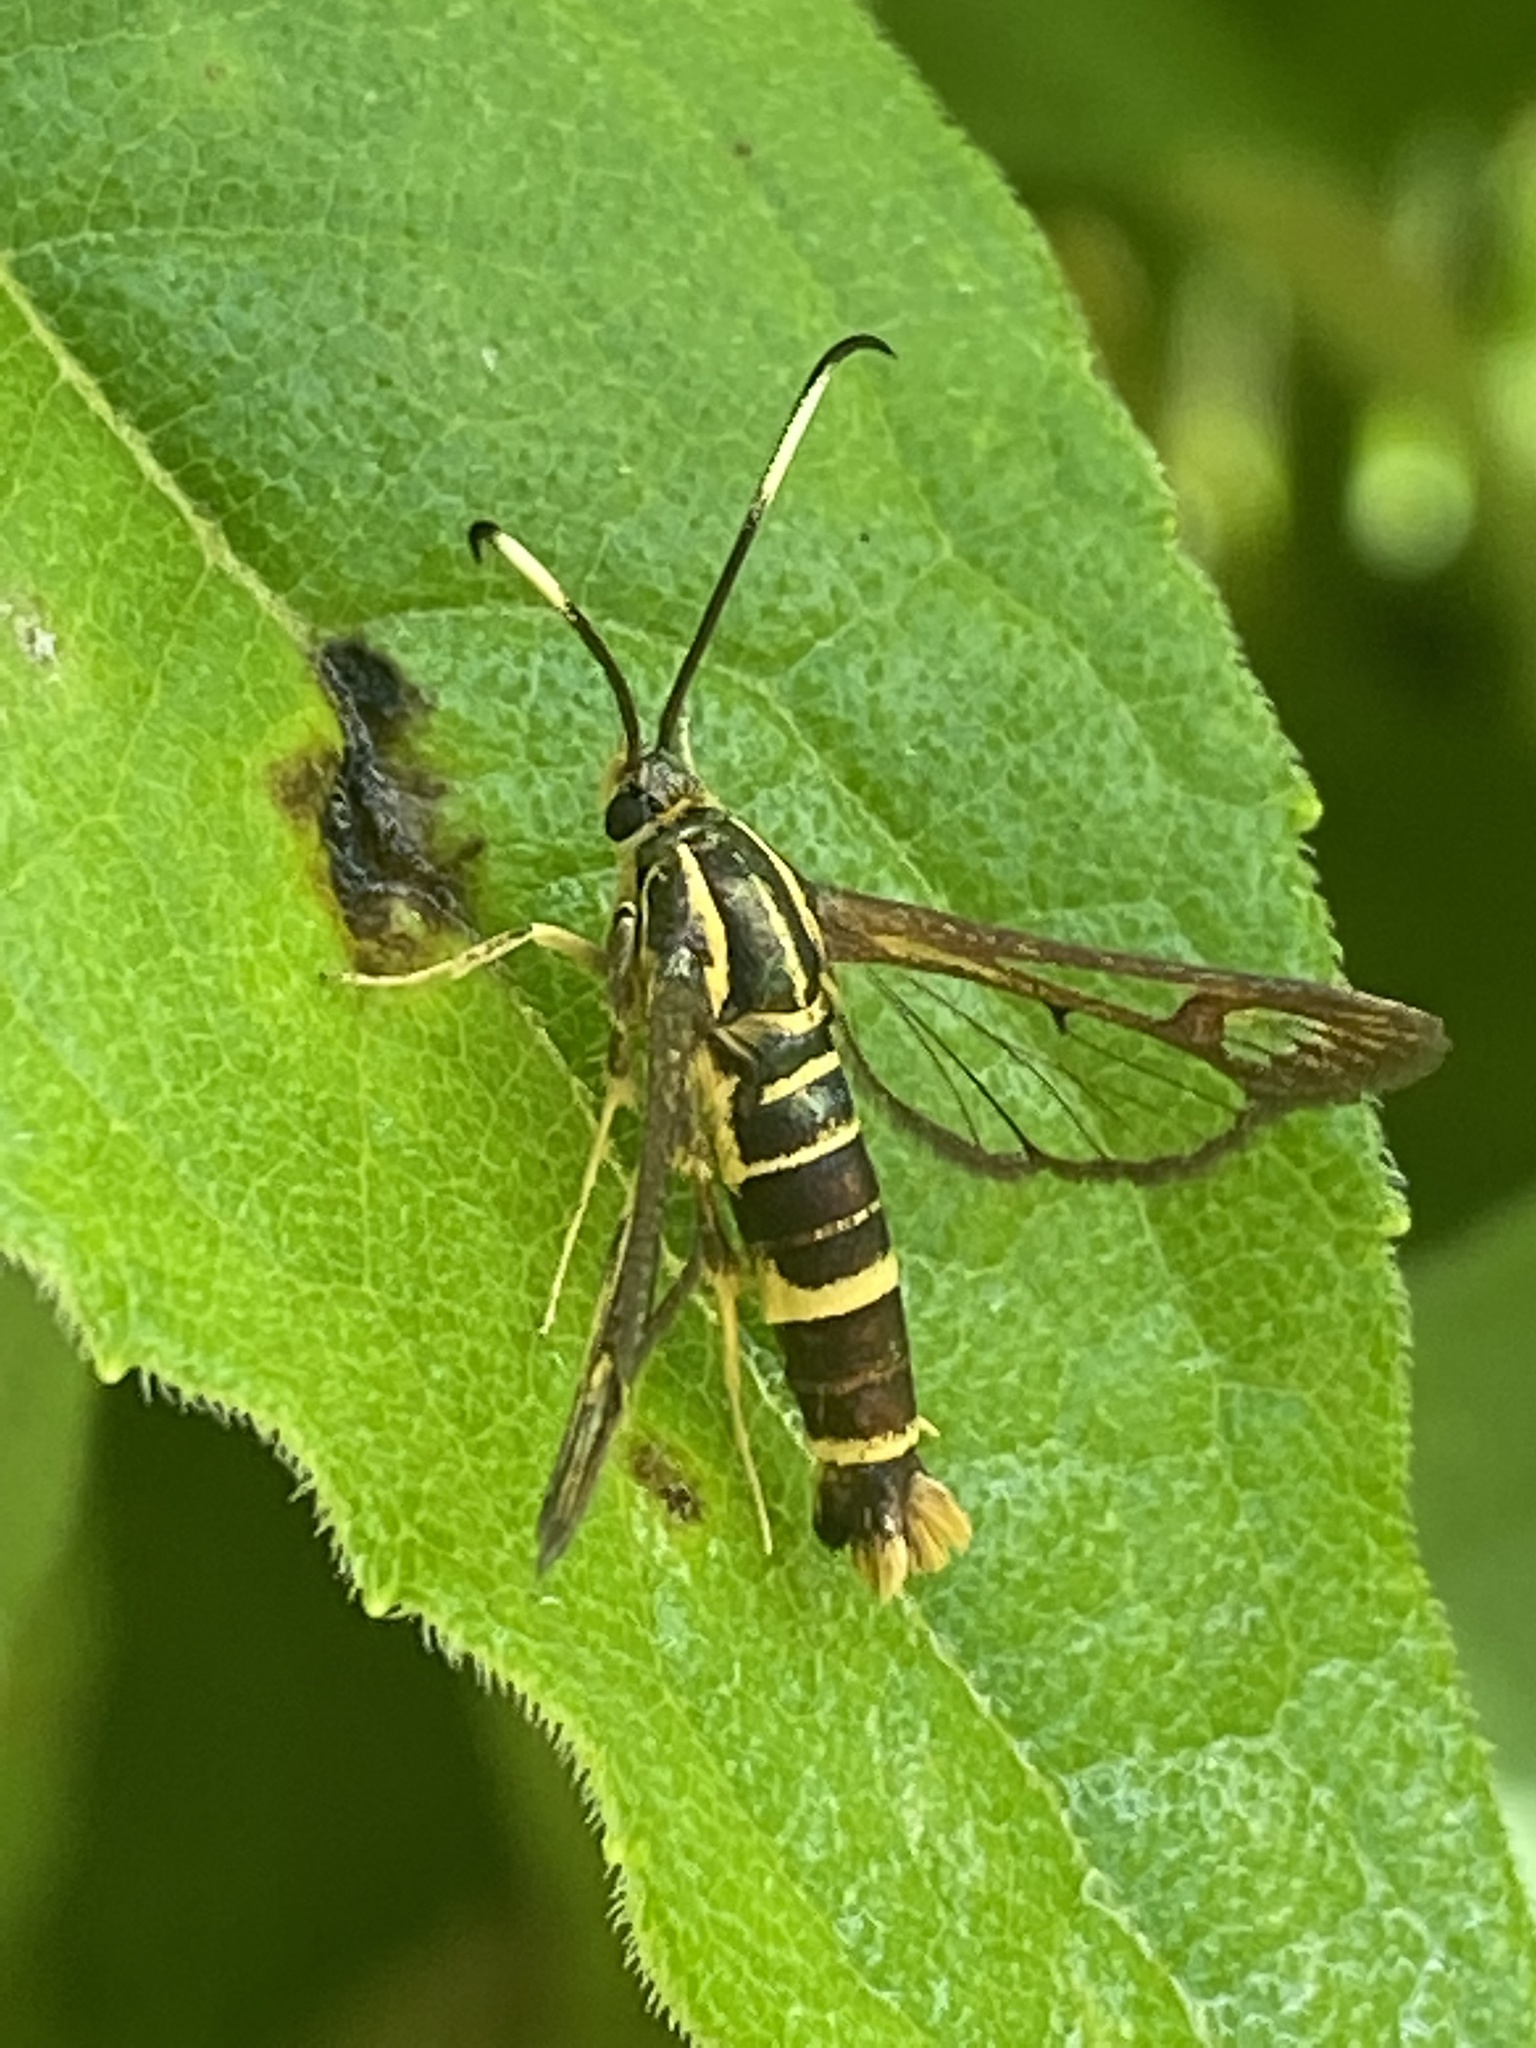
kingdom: Animalia
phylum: Arthropoda
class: Insecta
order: Lepidoptera
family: Sesiidae
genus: Carmenta
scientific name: Carmenta bassiformis
